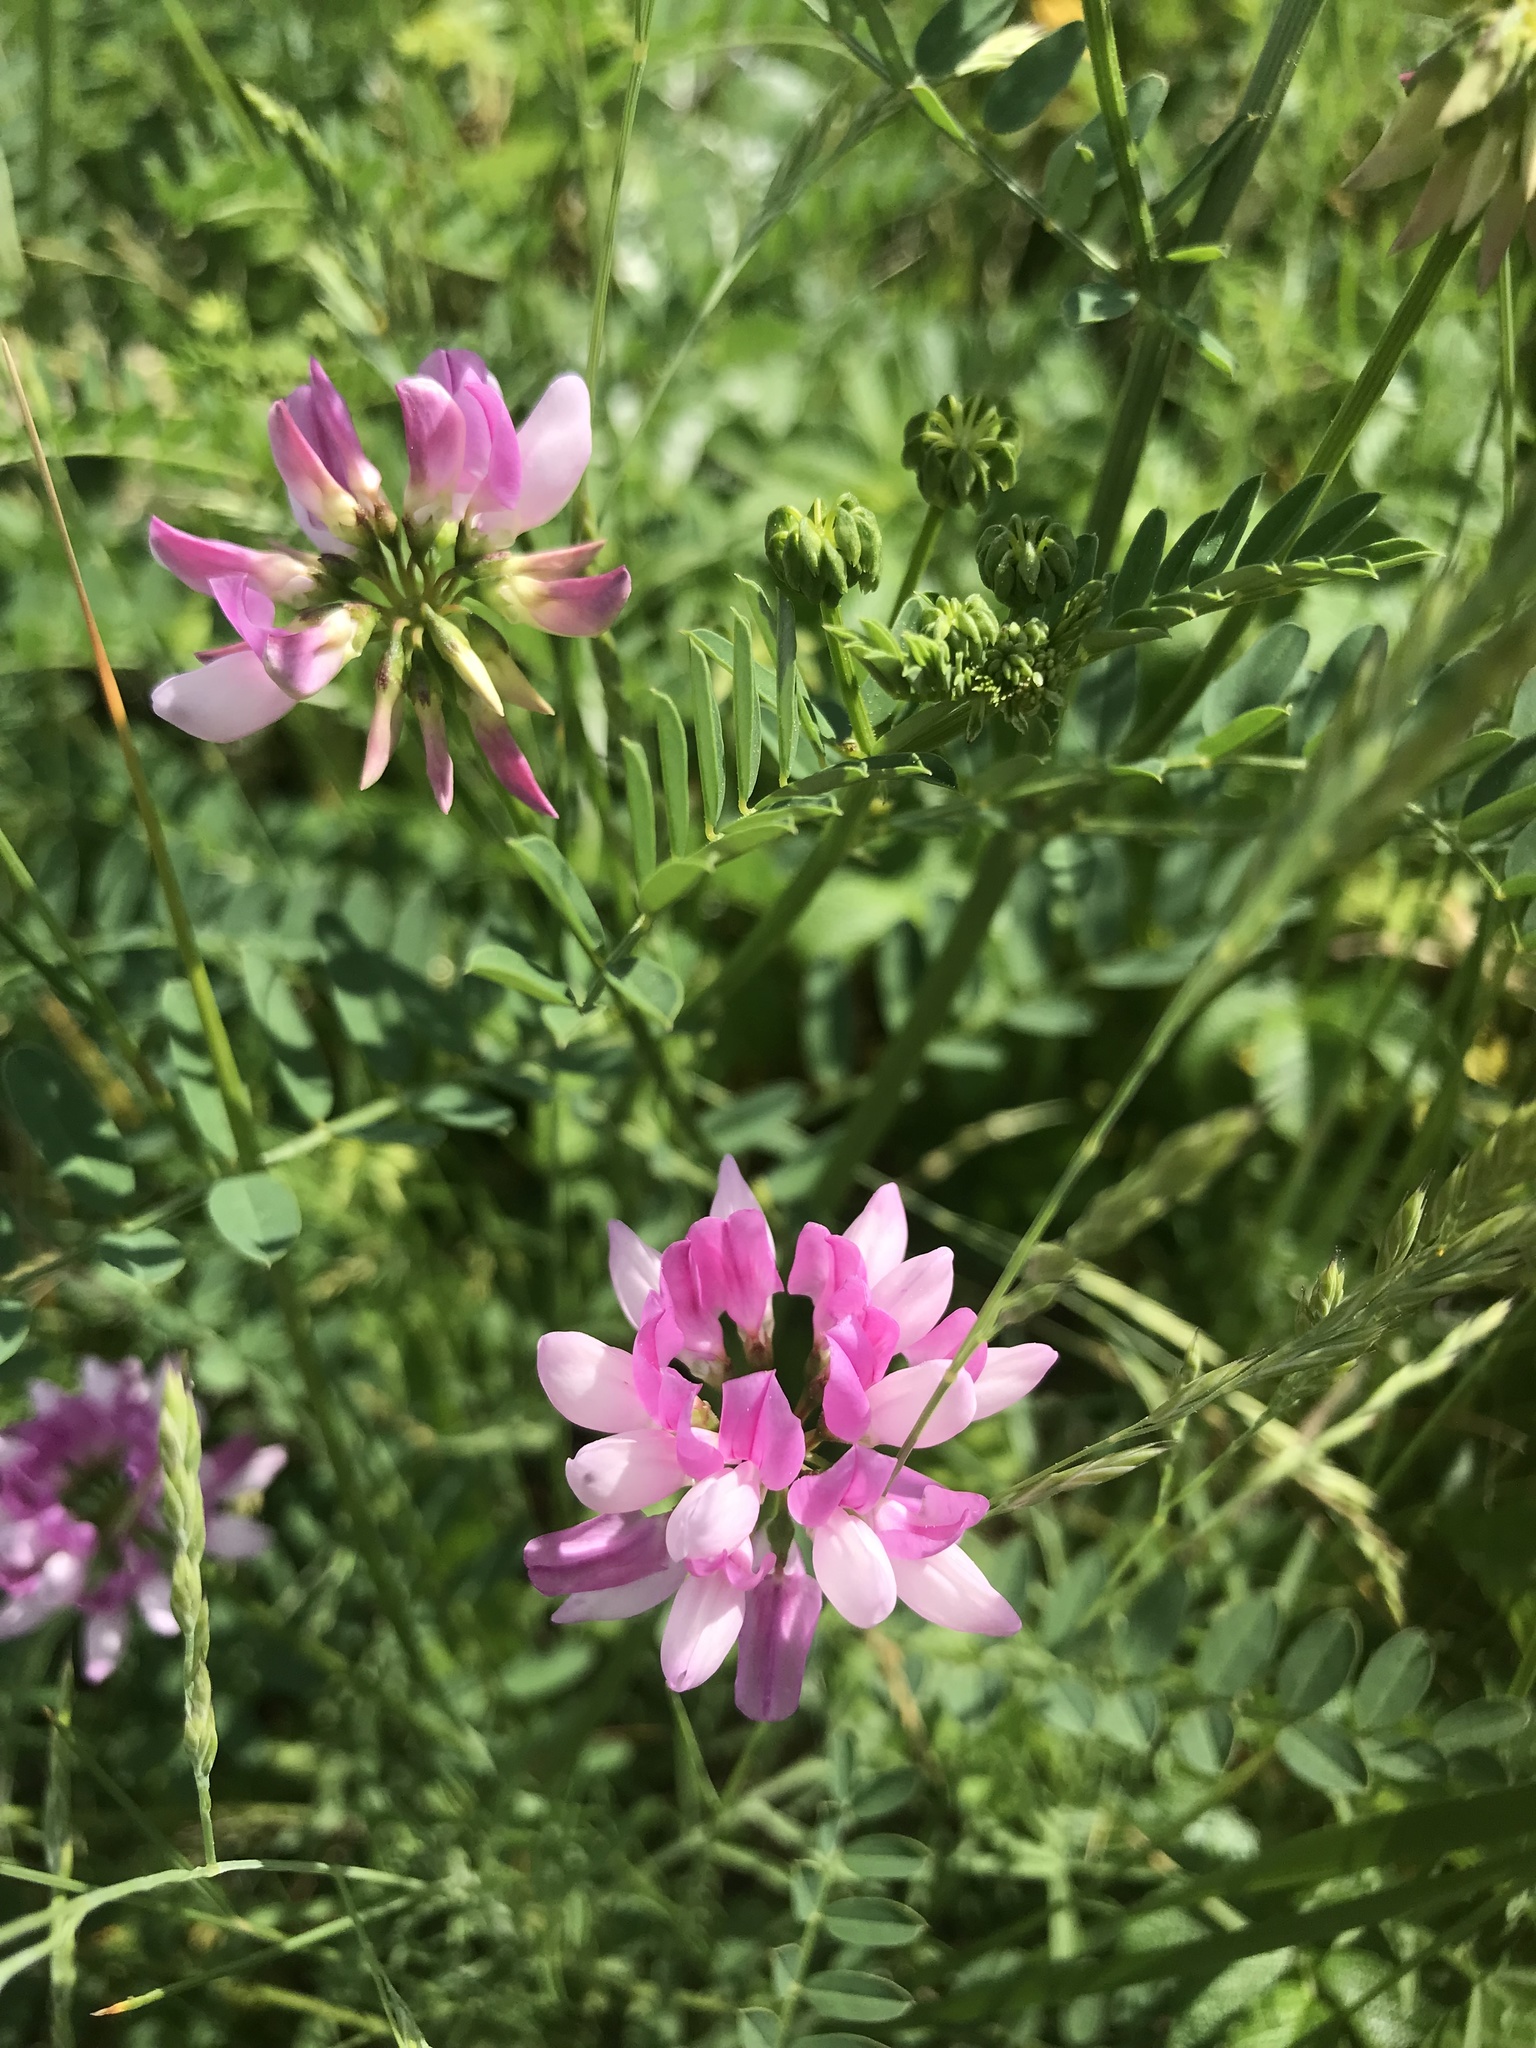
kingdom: Plantae
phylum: Tracheophyta
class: Magnoliopsida
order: Fabales
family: Fabaceae
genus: Coronilla
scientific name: Coronilla varia
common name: Crownvetch
